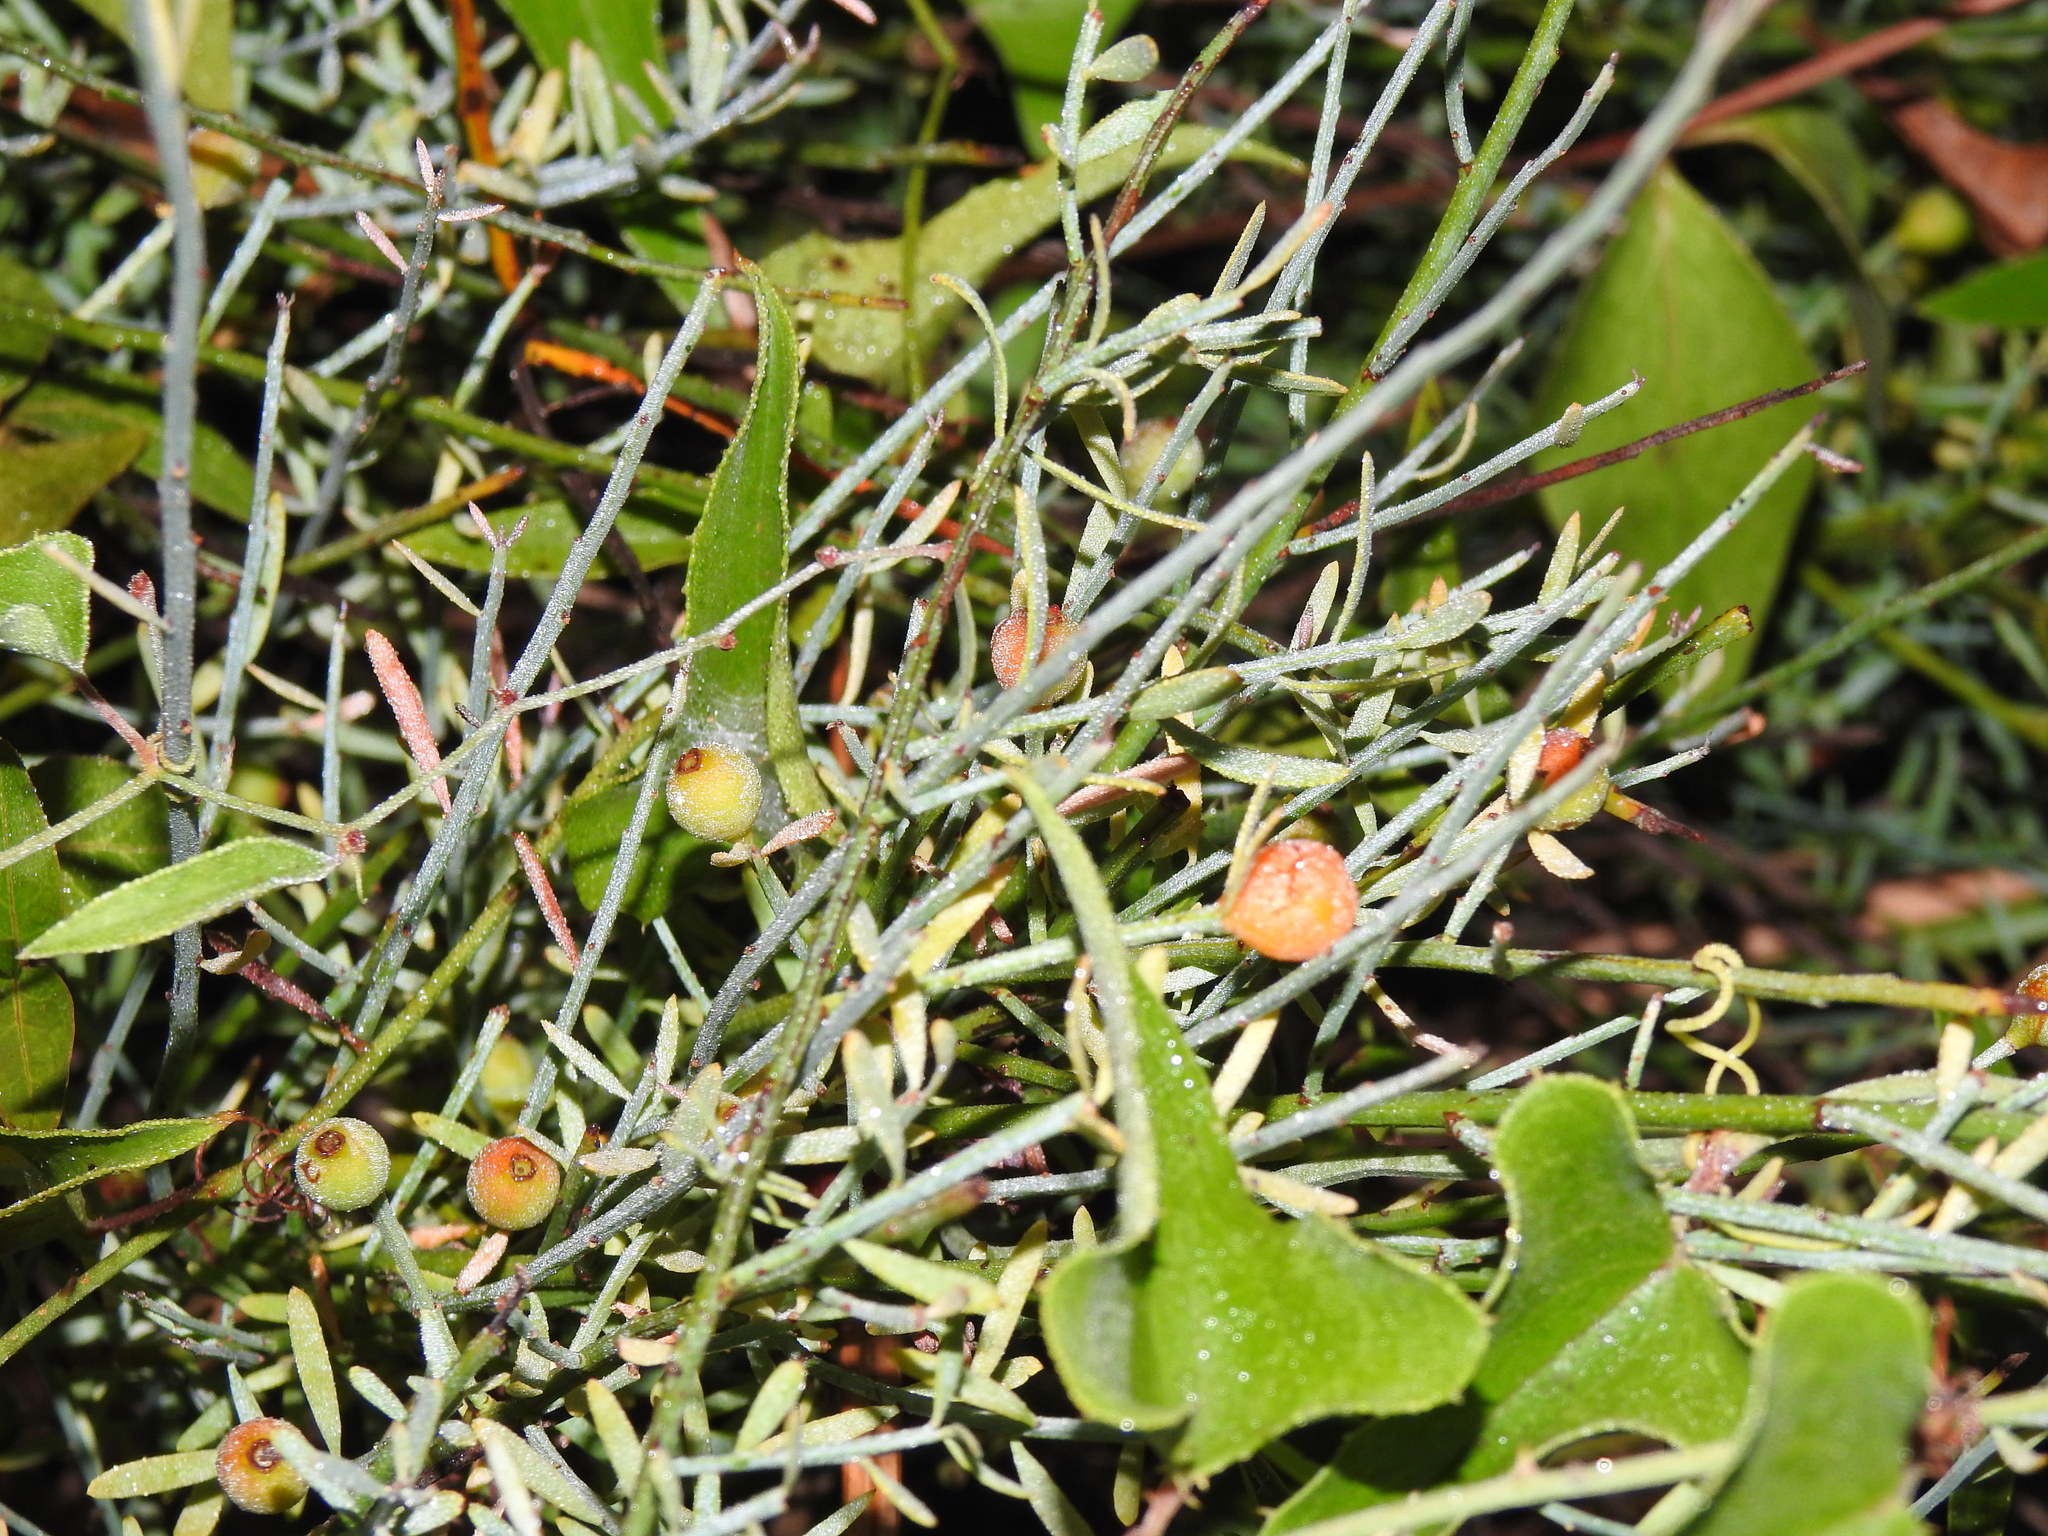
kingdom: Plantae
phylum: Tracheophyta
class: Magnoliopsida
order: Santalales
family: Santalaceae
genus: Osyris
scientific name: Osyris alba
